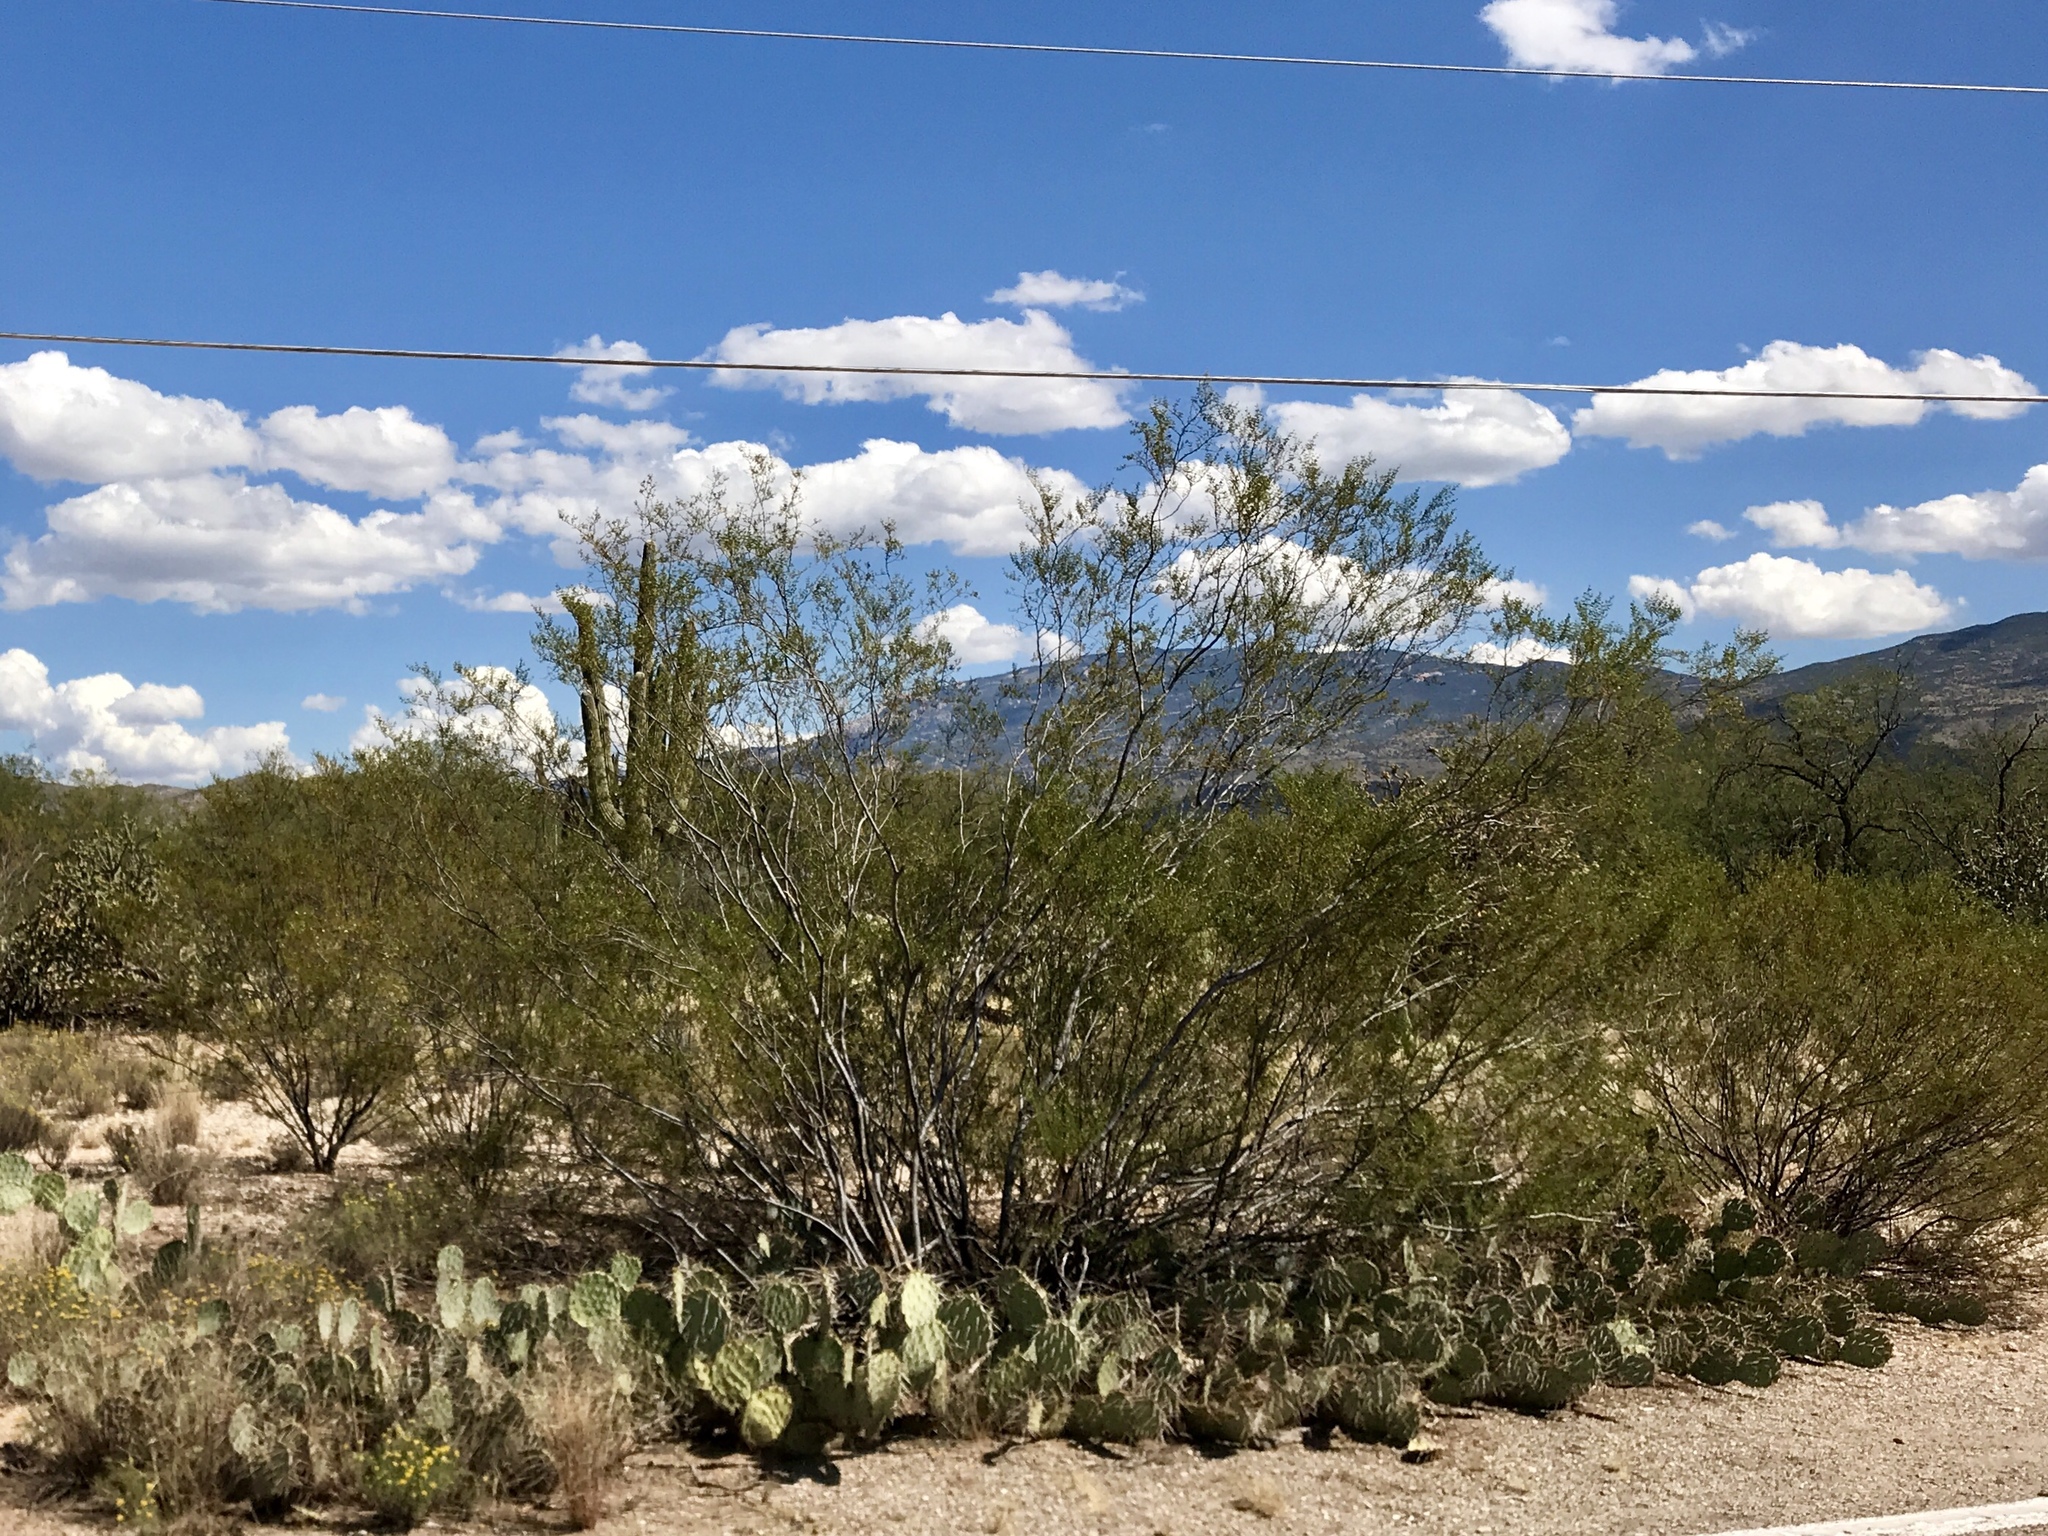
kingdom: Plantae
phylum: Tracheophyta
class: Magnoliopsida
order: Zygophyllales
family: Zygophyllaceae
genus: Larrea
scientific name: Larrea tridentata
